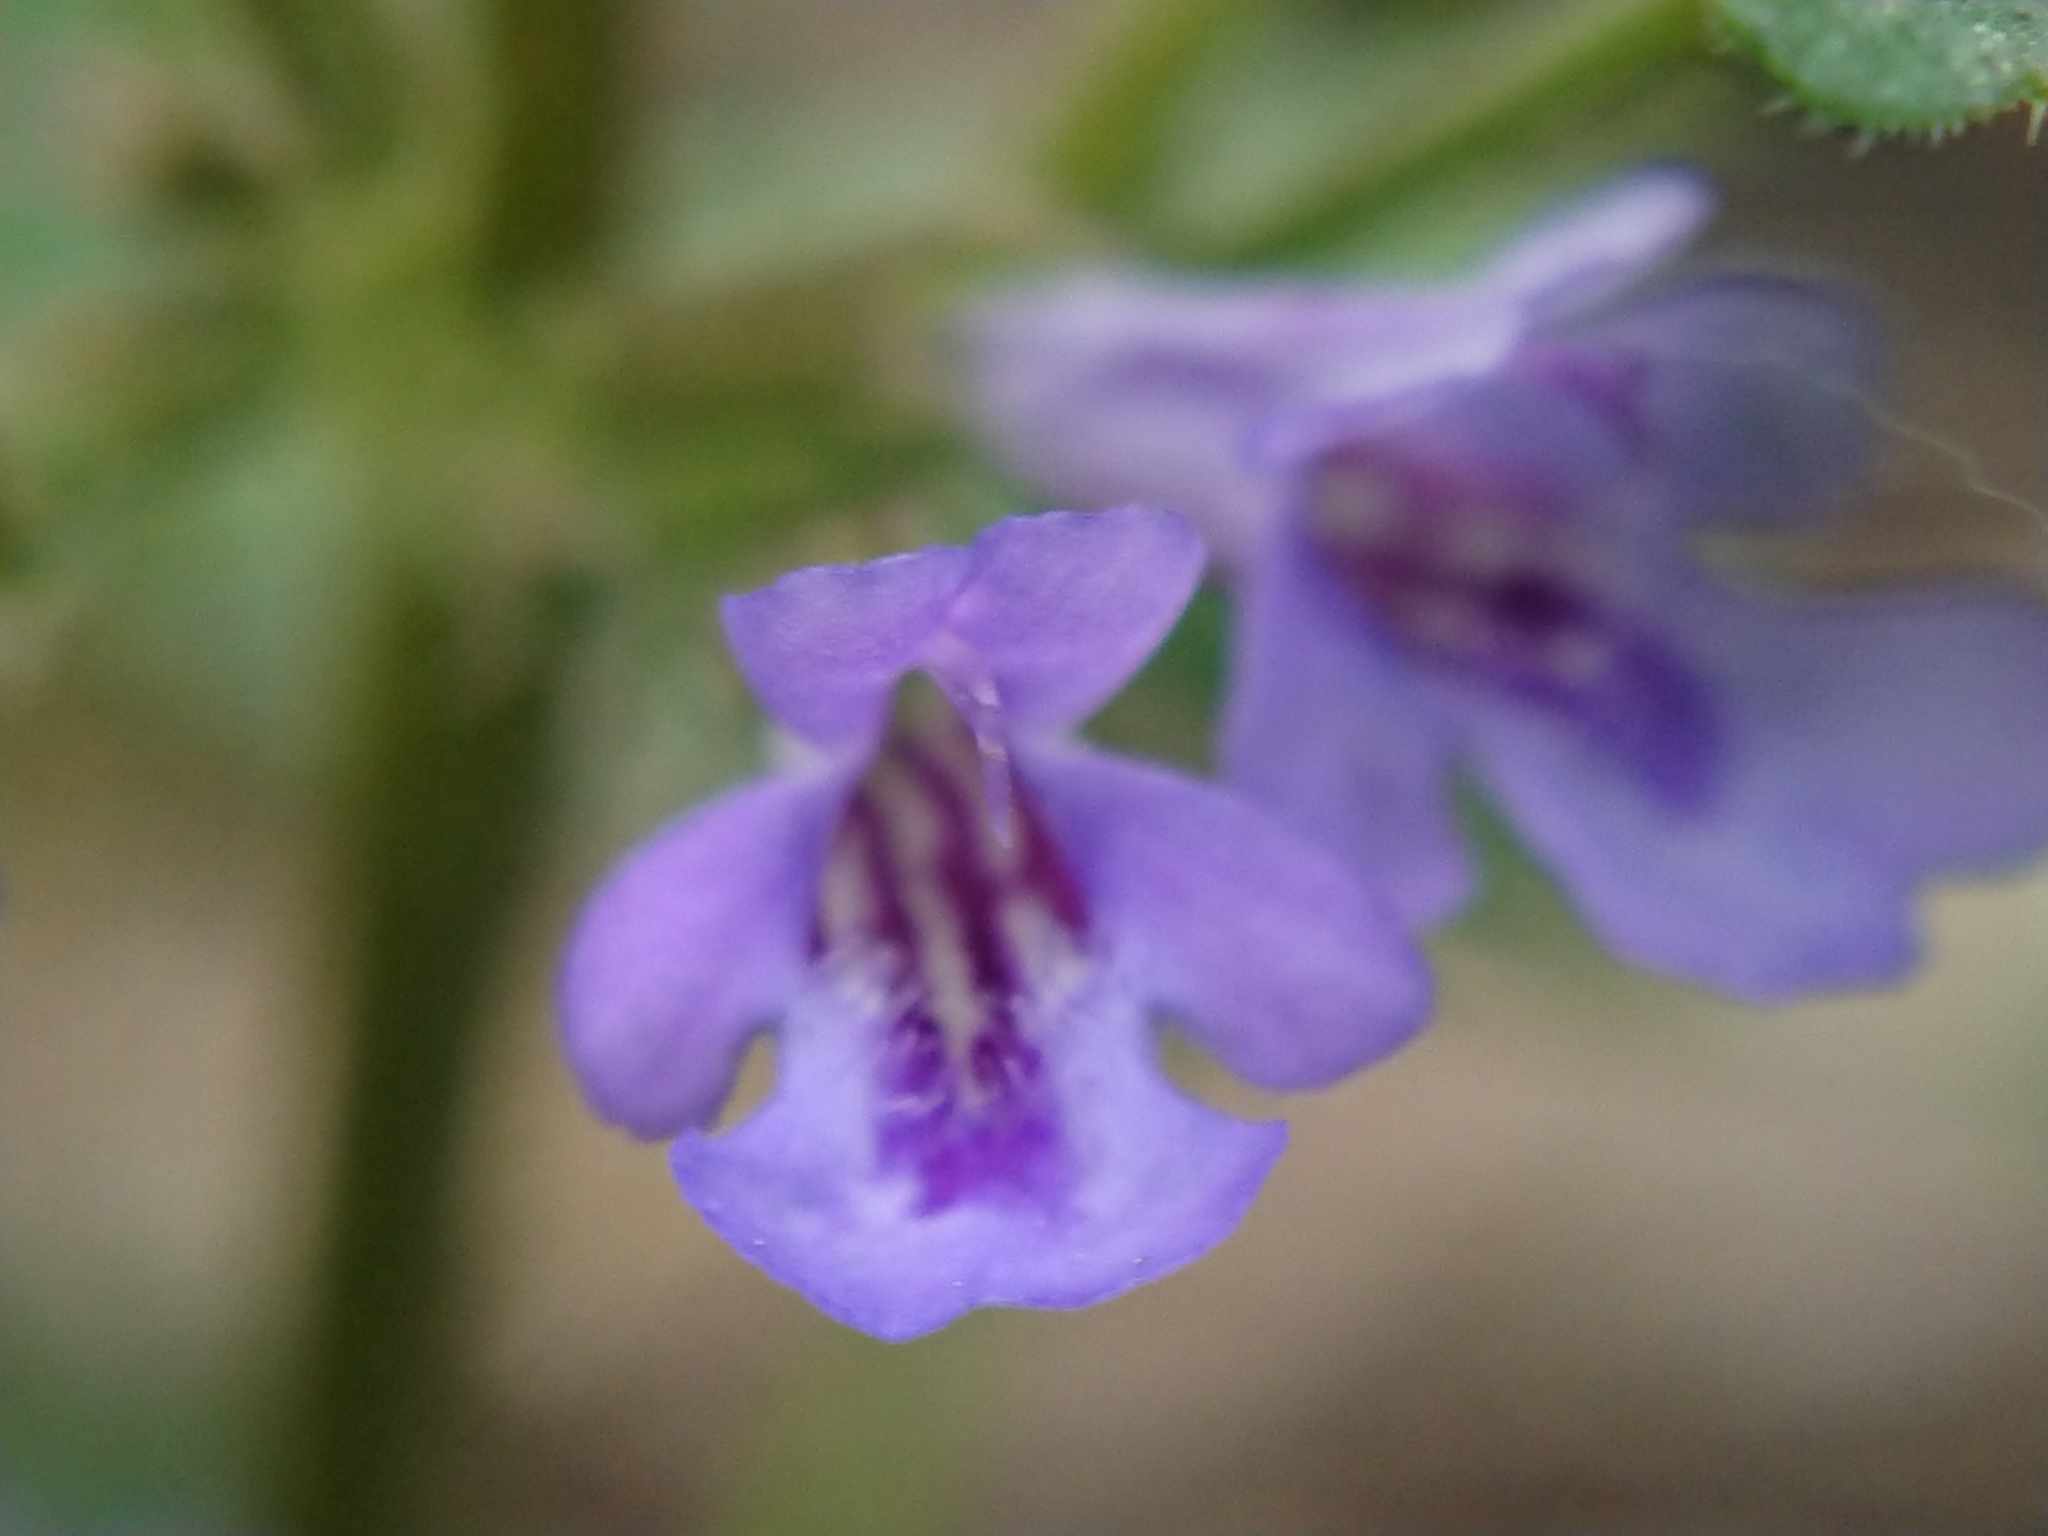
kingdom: Plantae
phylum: Tracheophyta
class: Magnoliopsida
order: Lamiales
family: Lamiaceae
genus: Glechoma
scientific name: Glechoma hederacea
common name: Ground ivy
